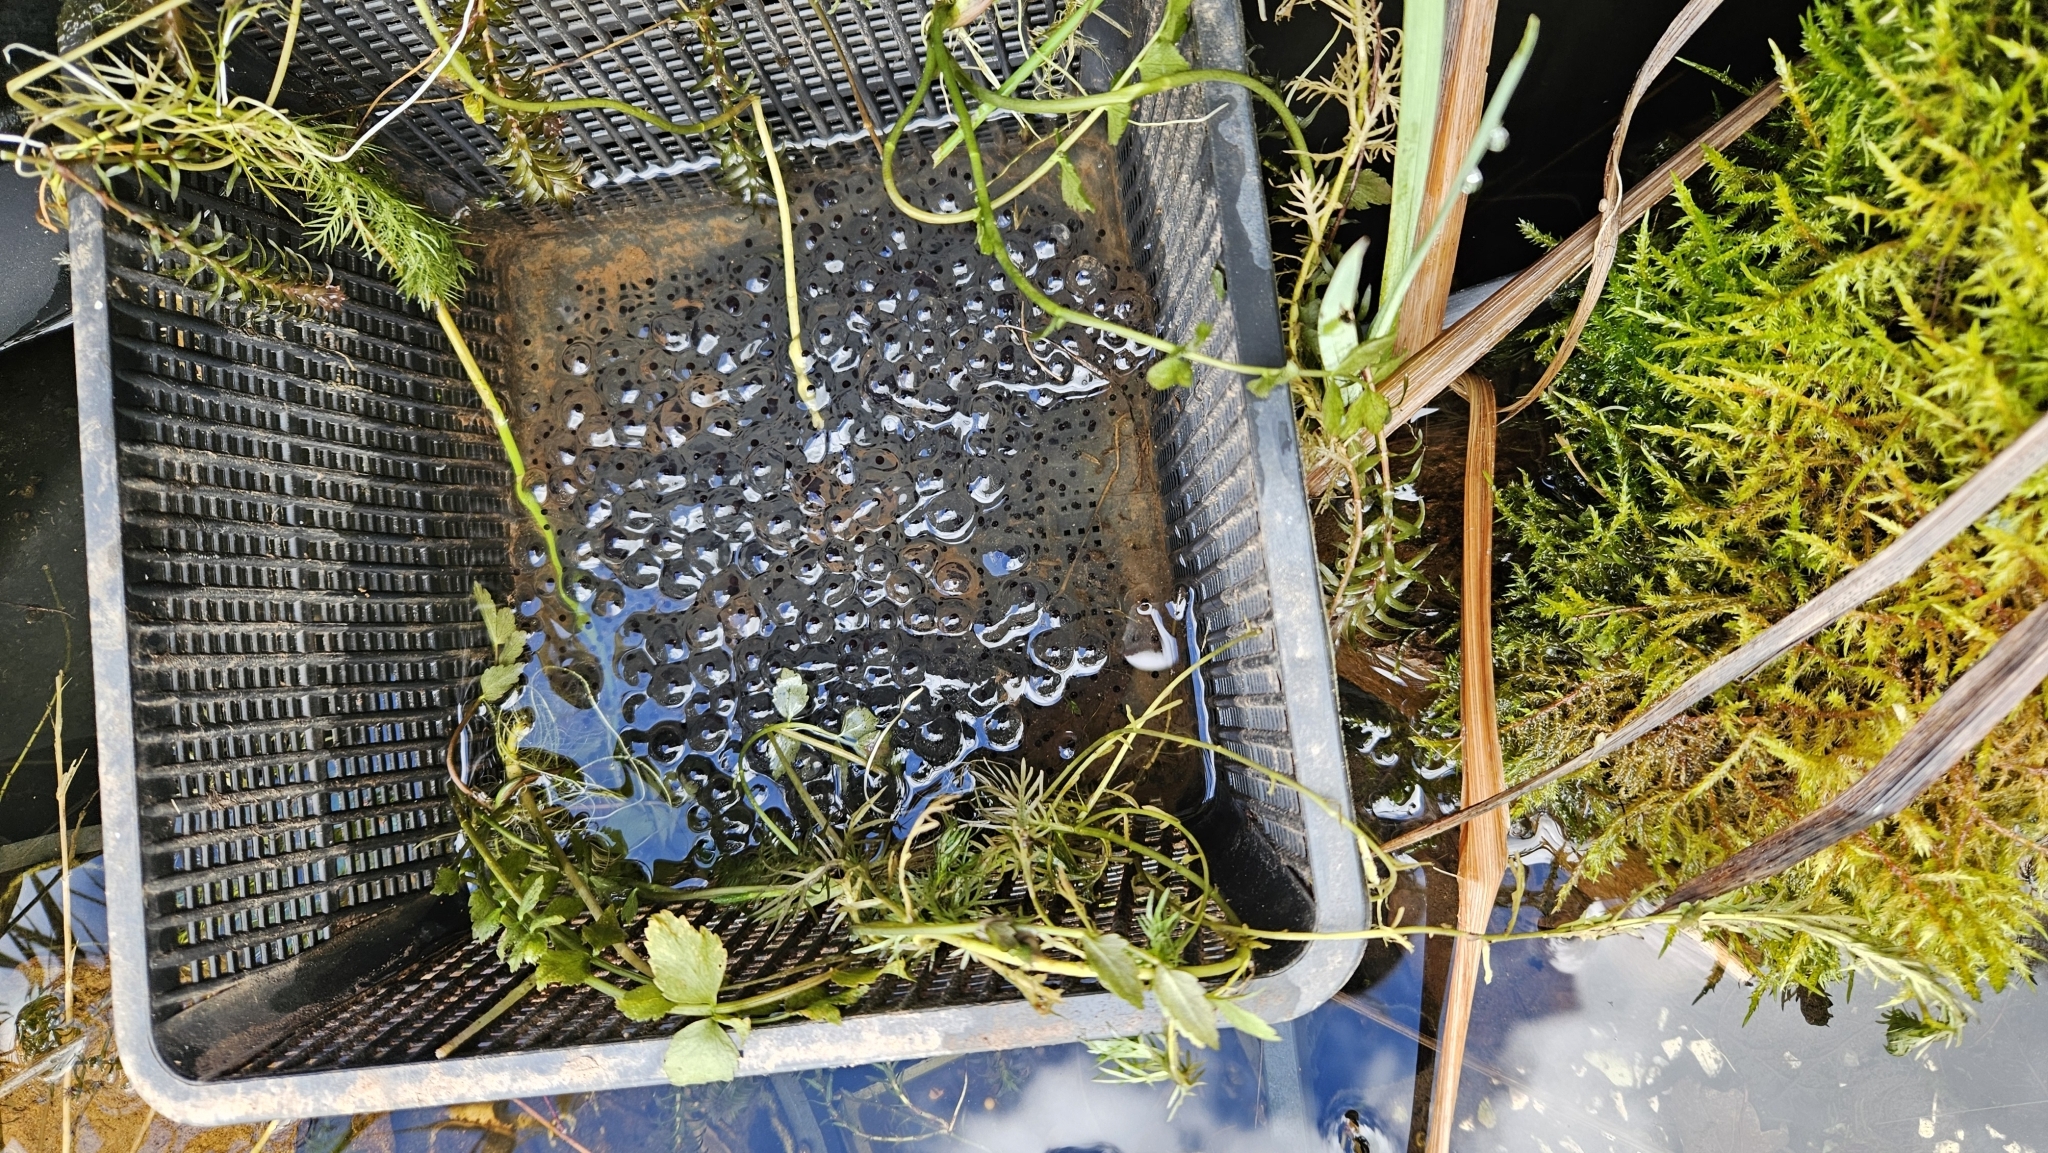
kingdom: Animalia
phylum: Chordata
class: Amphibia
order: Anura
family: Ranidae
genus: Rana
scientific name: Rana temporaria
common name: Common frog
